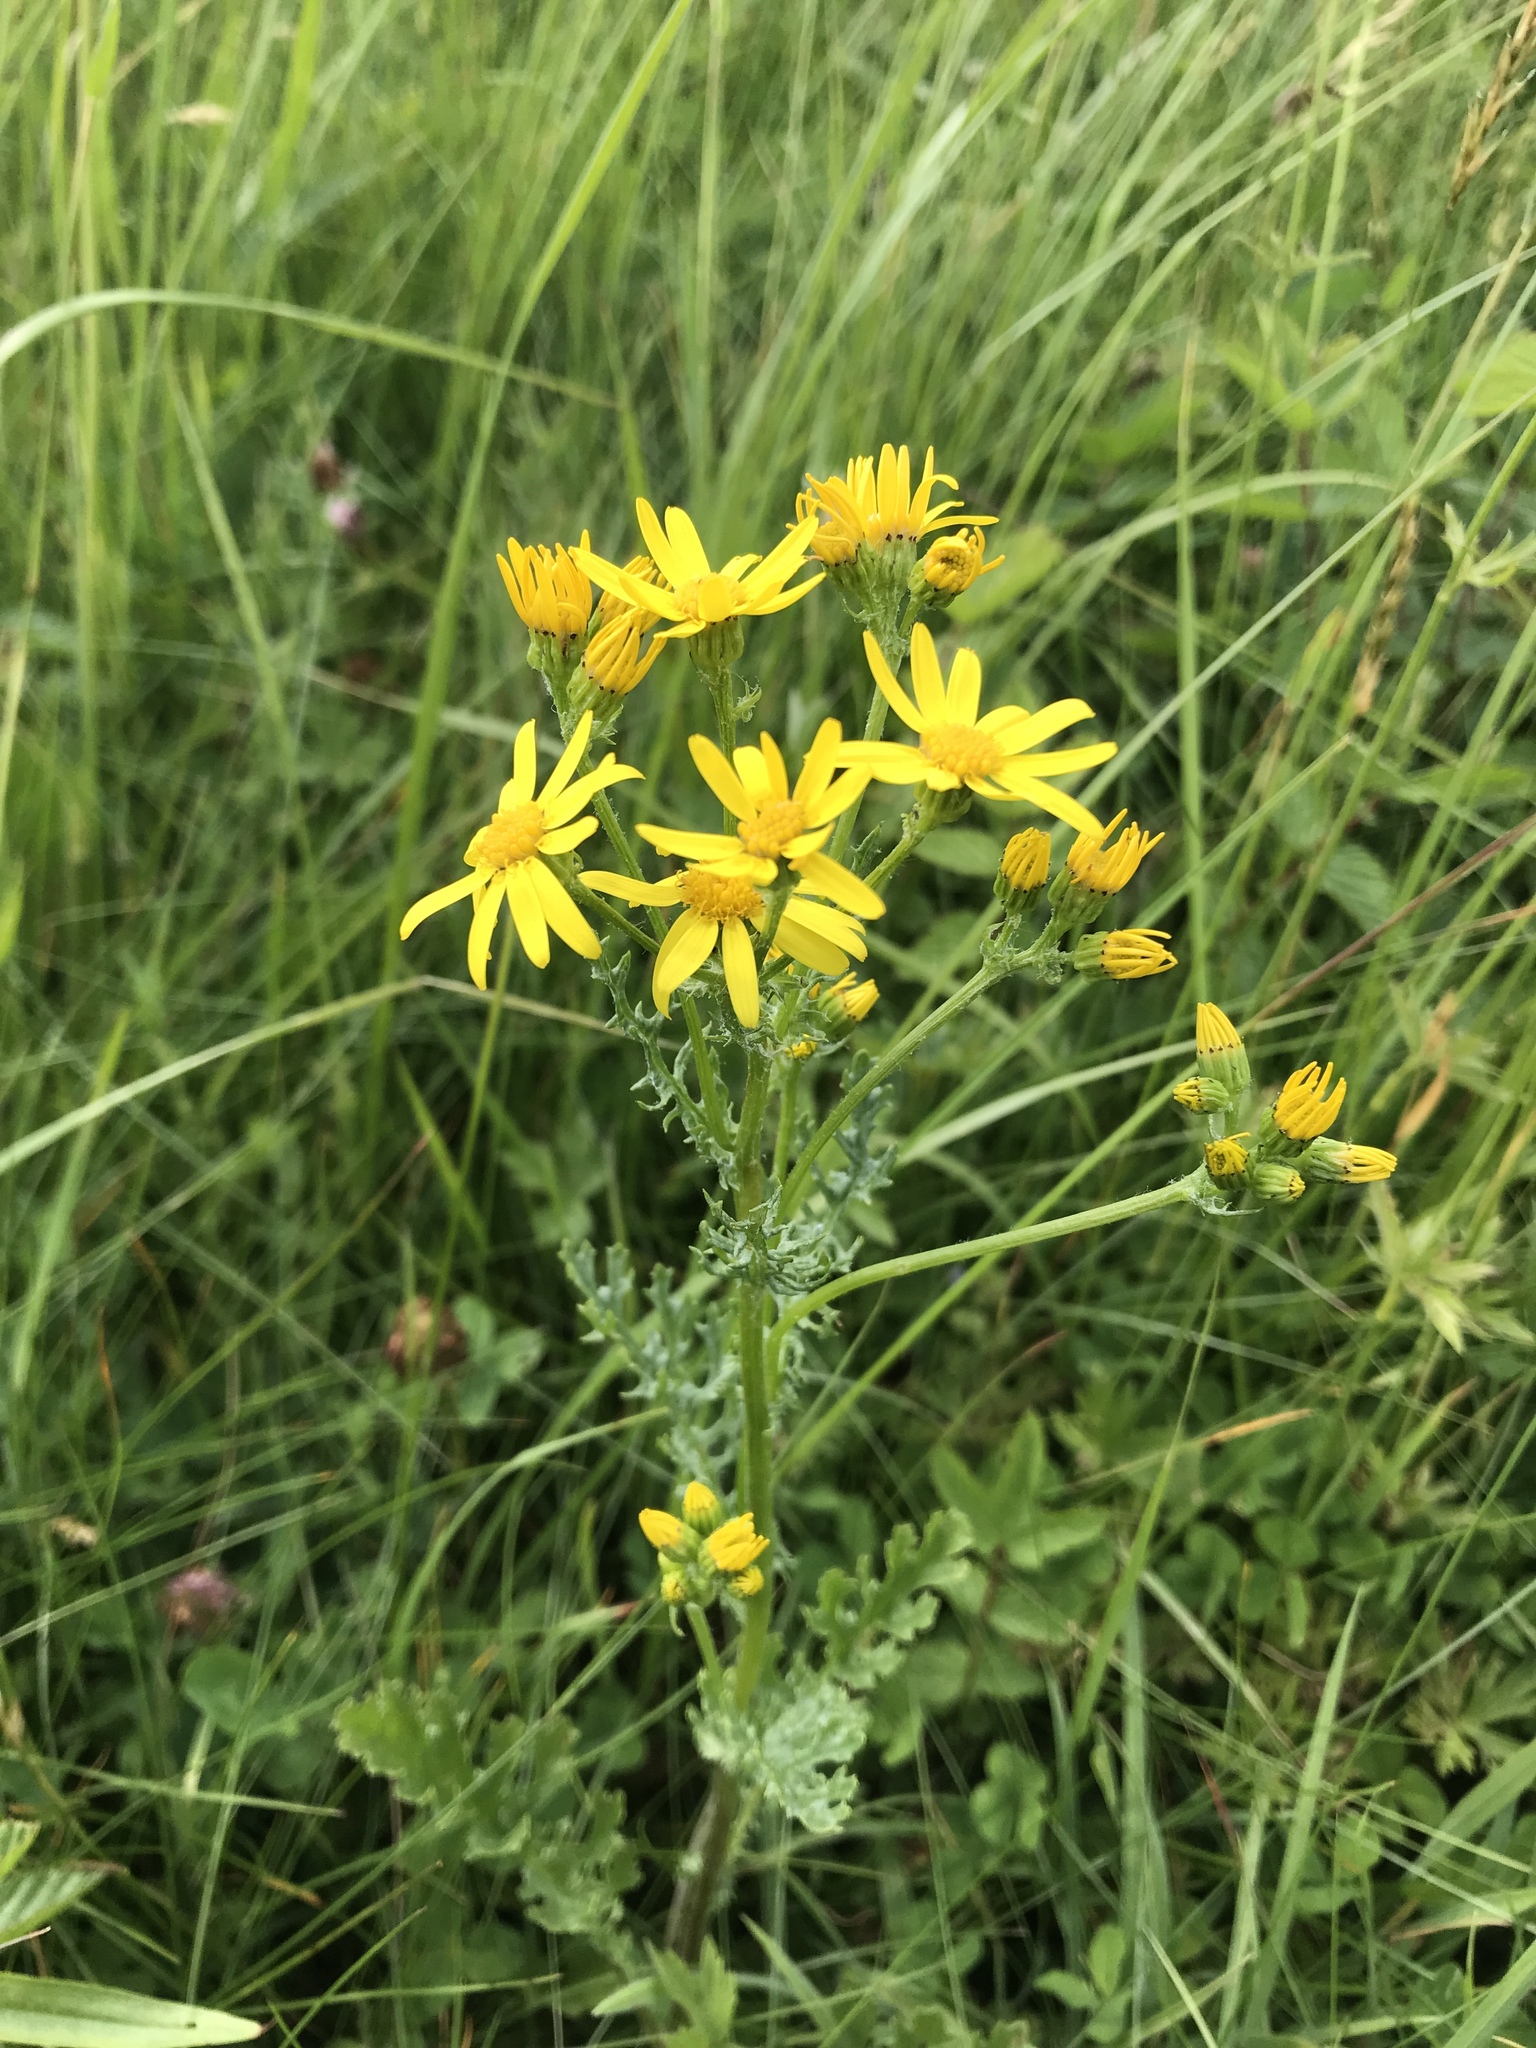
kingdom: Plantae
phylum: Tracheophyta
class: Magnoliopsida
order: Asterales
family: Asteraceae
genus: Jacobaea
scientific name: Jacobaea vulgaris
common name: Stinking willie
